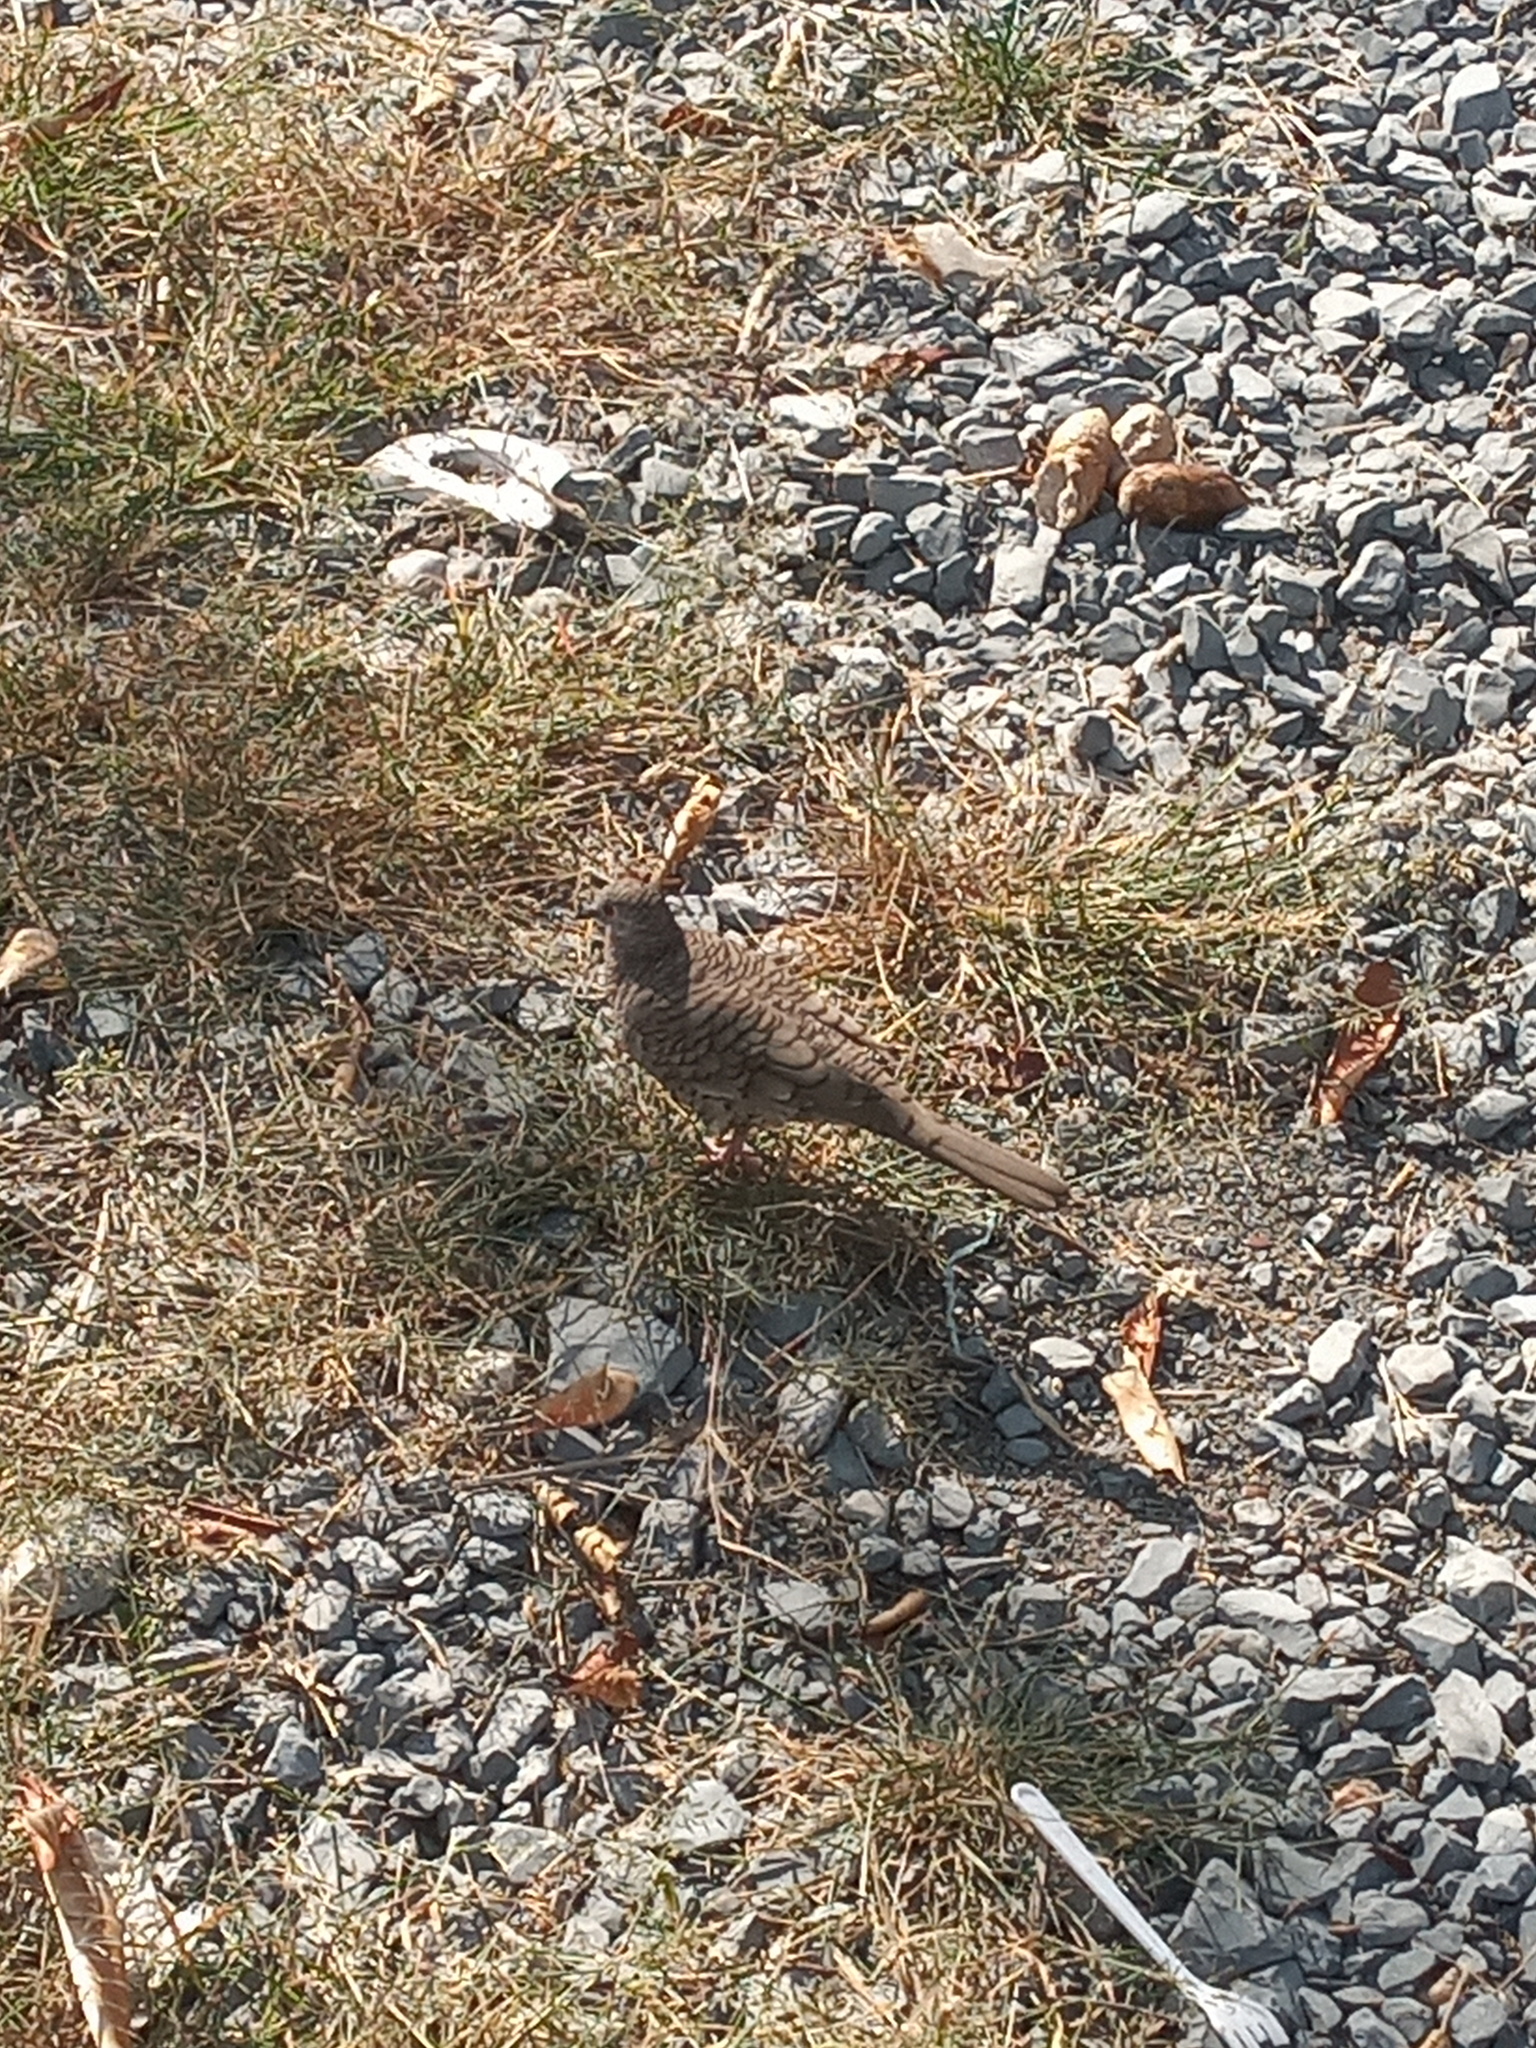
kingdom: Animalia
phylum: Chordata
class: Aves
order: Columbiformes
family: Columbidae
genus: Columbina
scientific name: Columbina inca
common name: Inca dove
